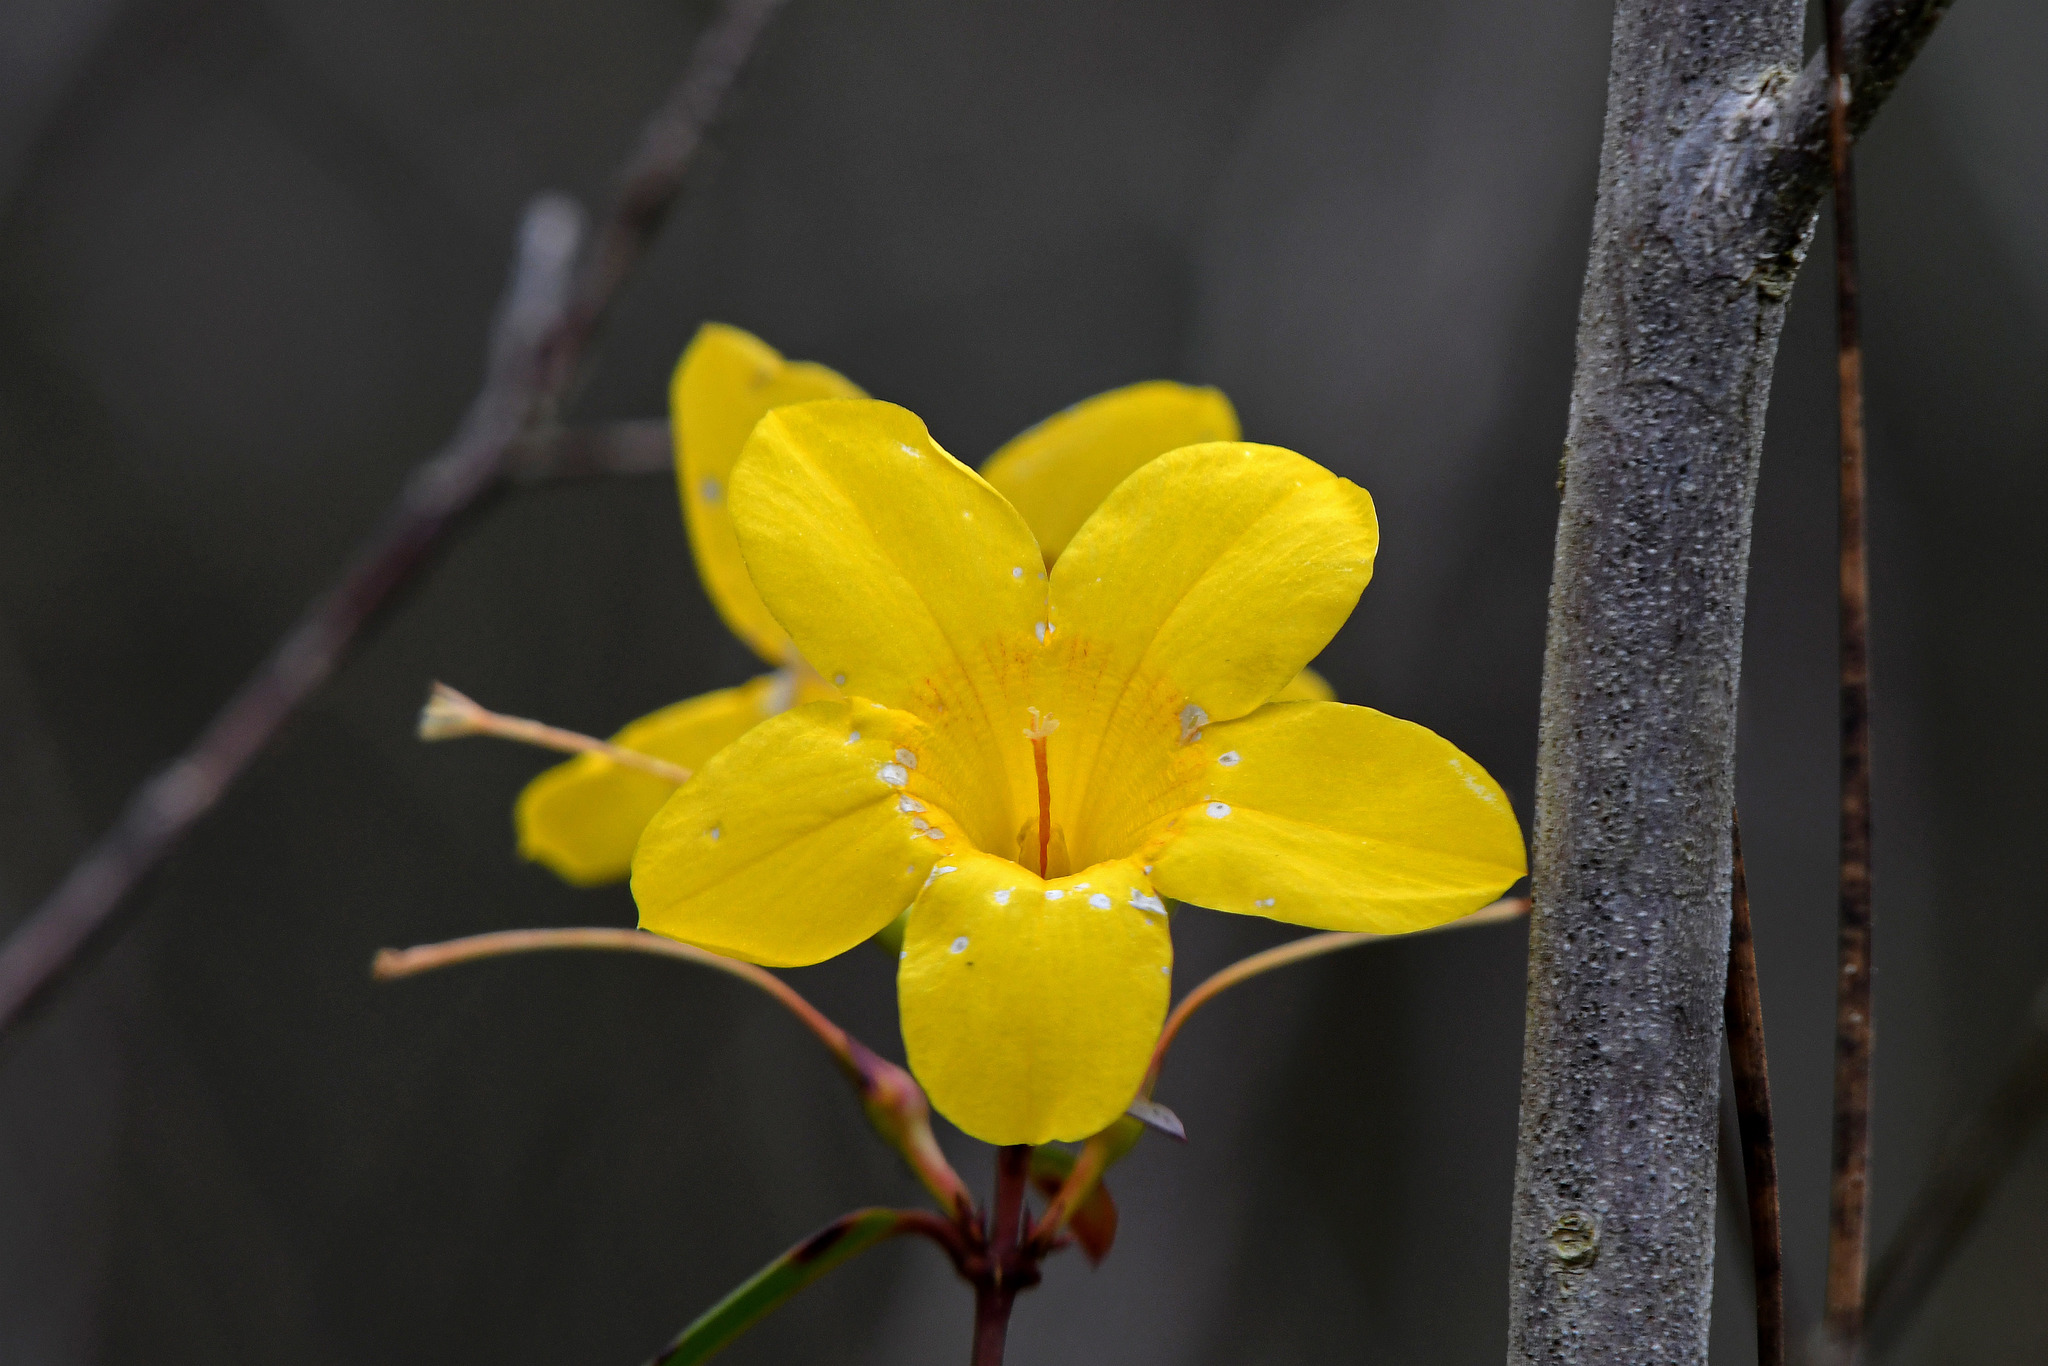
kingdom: Plantae
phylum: Tracheophyta
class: Magnoliopsida
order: Gentianales
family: Gelsemiaceae
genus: Gelsemium
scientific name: Gelsemium sempervirens
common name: Carolina-jasmine
